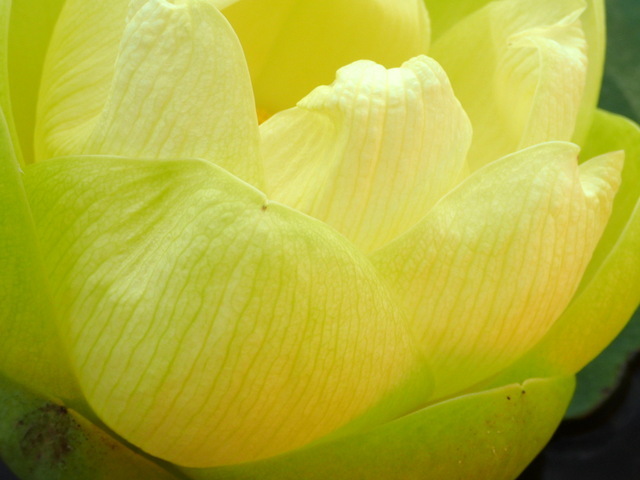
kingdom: Plantae
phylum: Tracheophyta
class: Magnoliopsida
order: Proteales
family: Nelumbonaceae
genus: Nelumbo
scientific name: Nelumbo lutea
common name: American lotus
